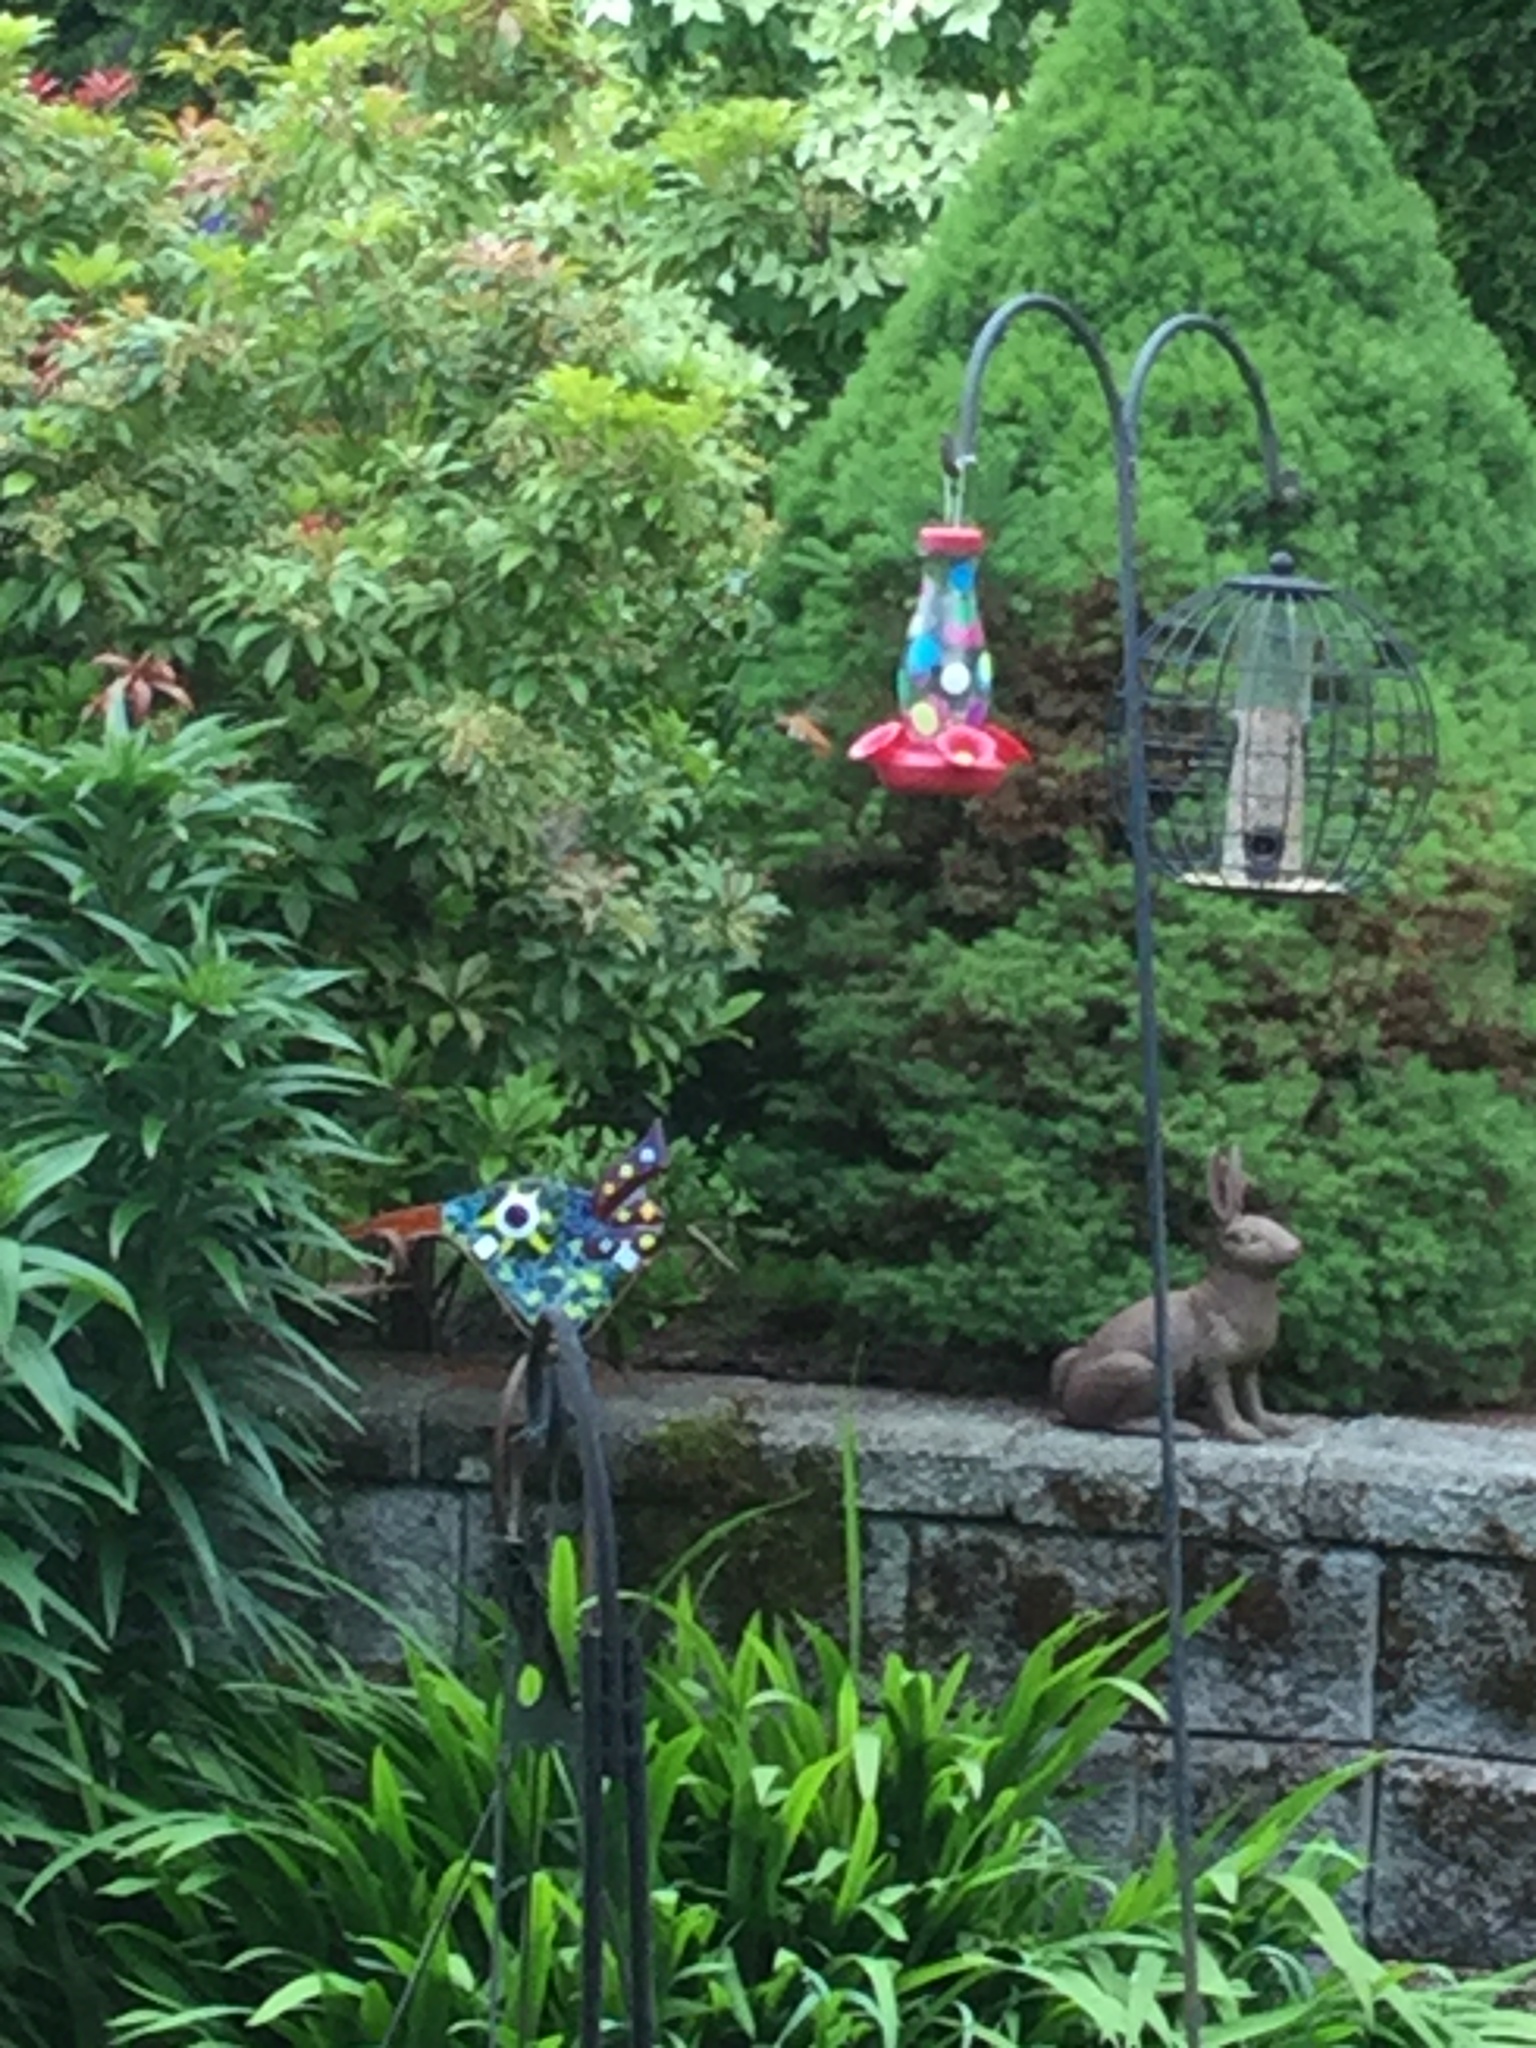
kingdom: Animalia
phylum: Chordata
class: Aves
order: Apodiformes
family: Trochilidae
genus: Selasphorus
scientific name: Selasphorus rufus
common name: Rufous hummingbird
